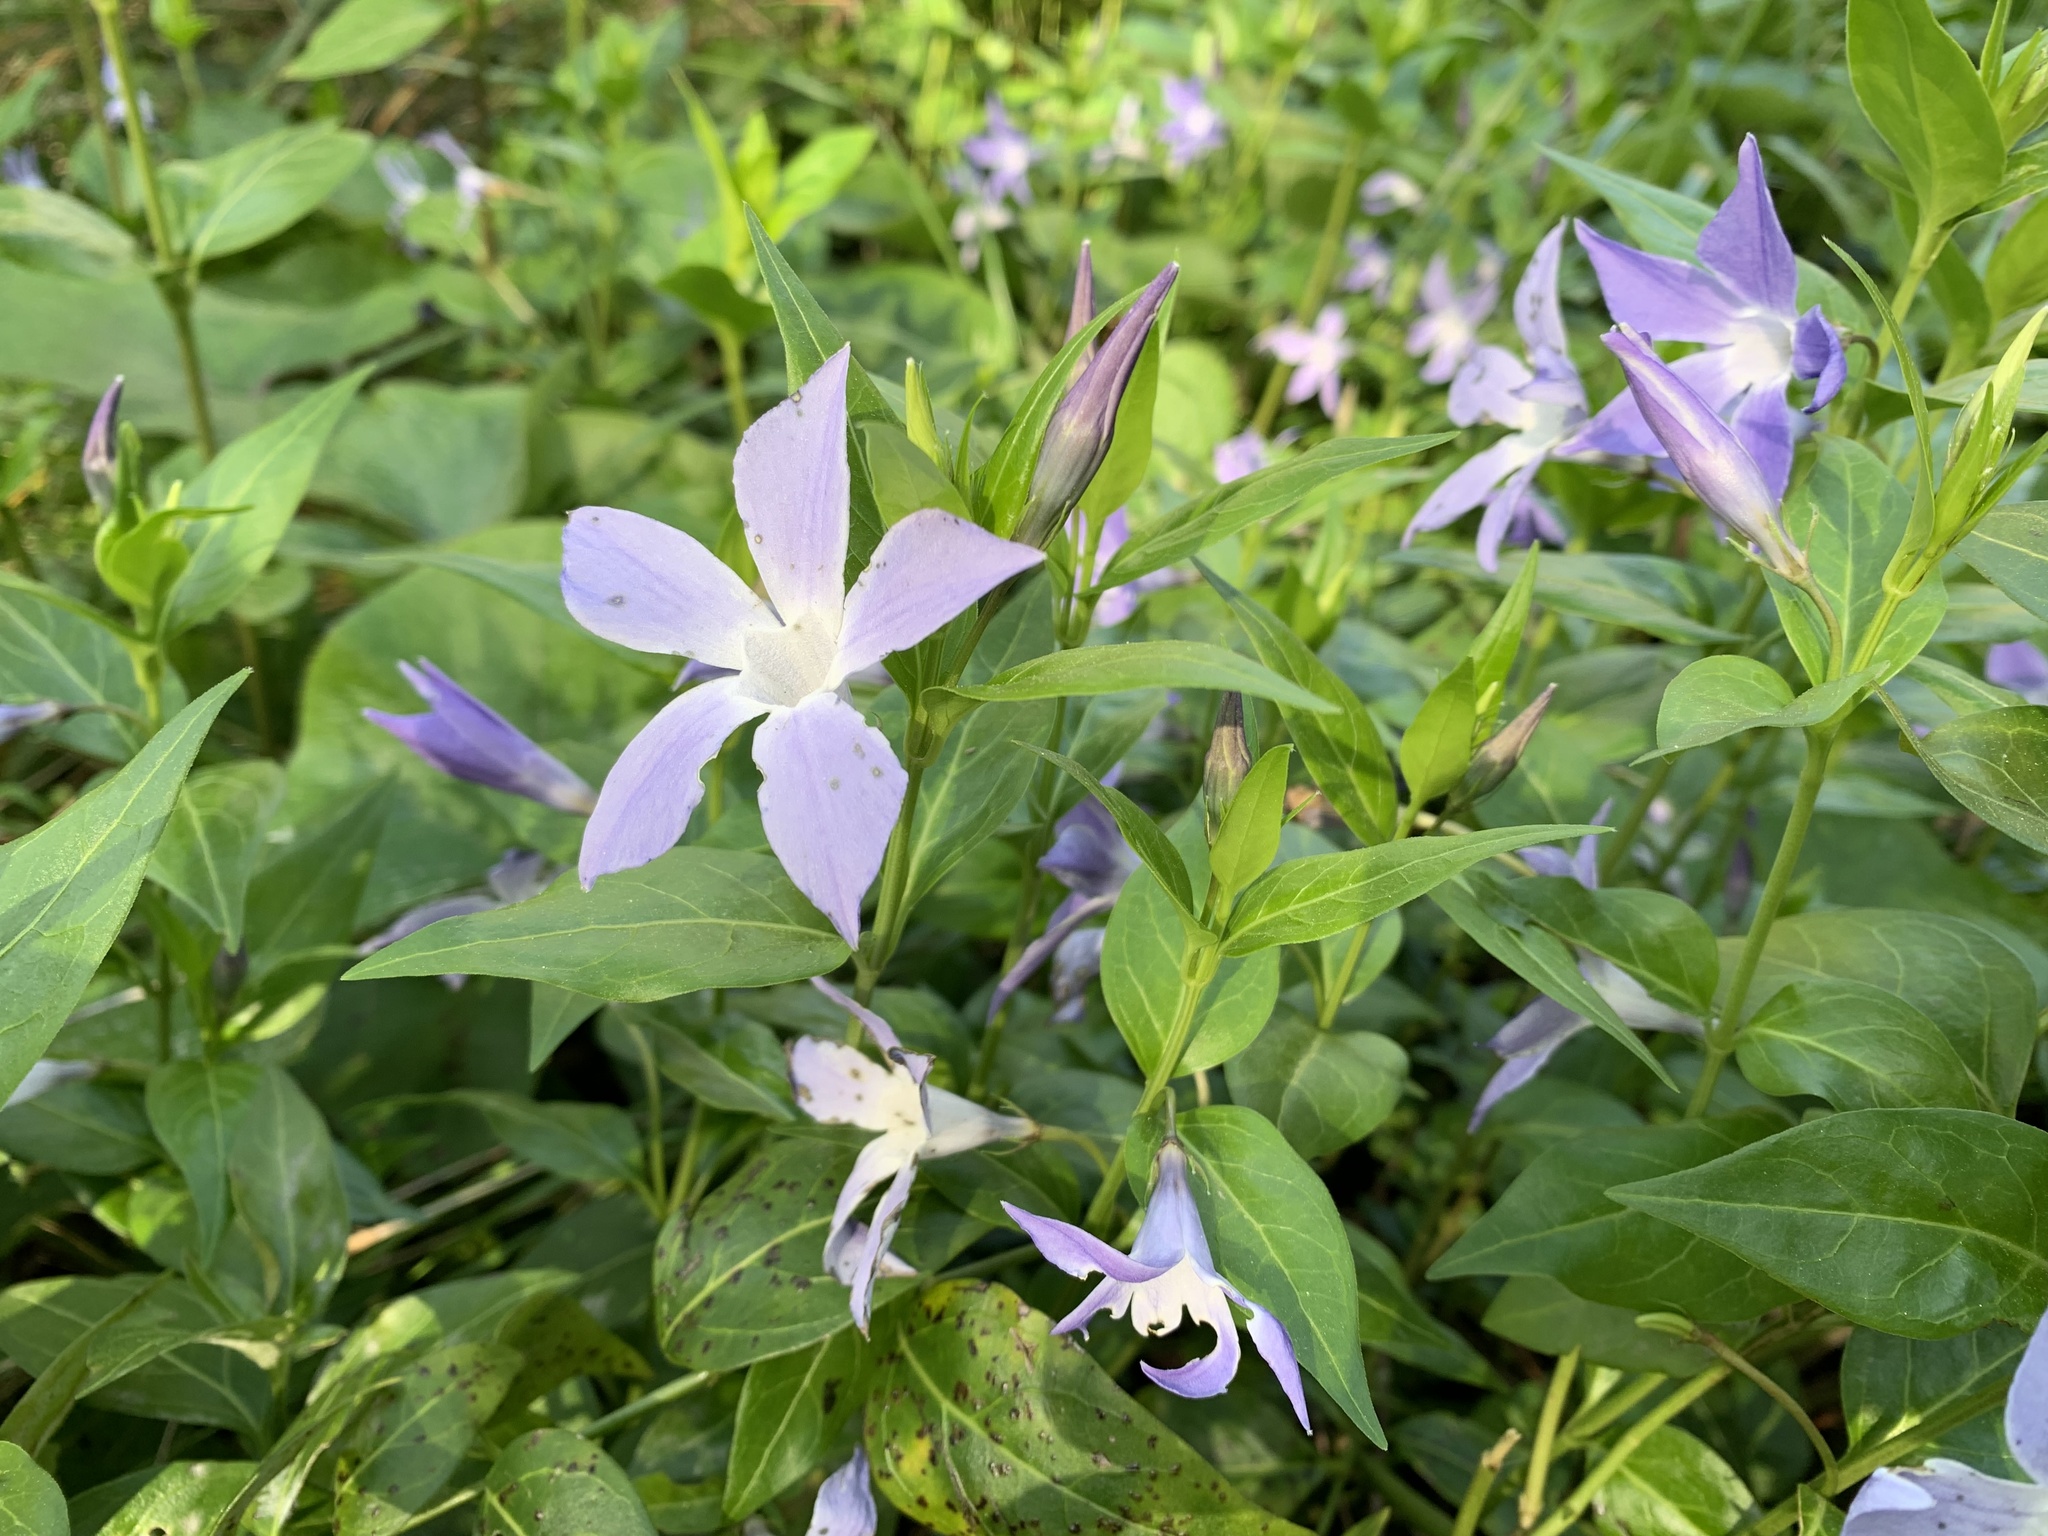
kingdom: Plantae
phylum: Tracheophyta
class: Magnoliopsida
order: Gentianales
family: Apocynaceae
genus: Vinca
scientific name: Vinca difformis
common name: Intermediate periwinkle
